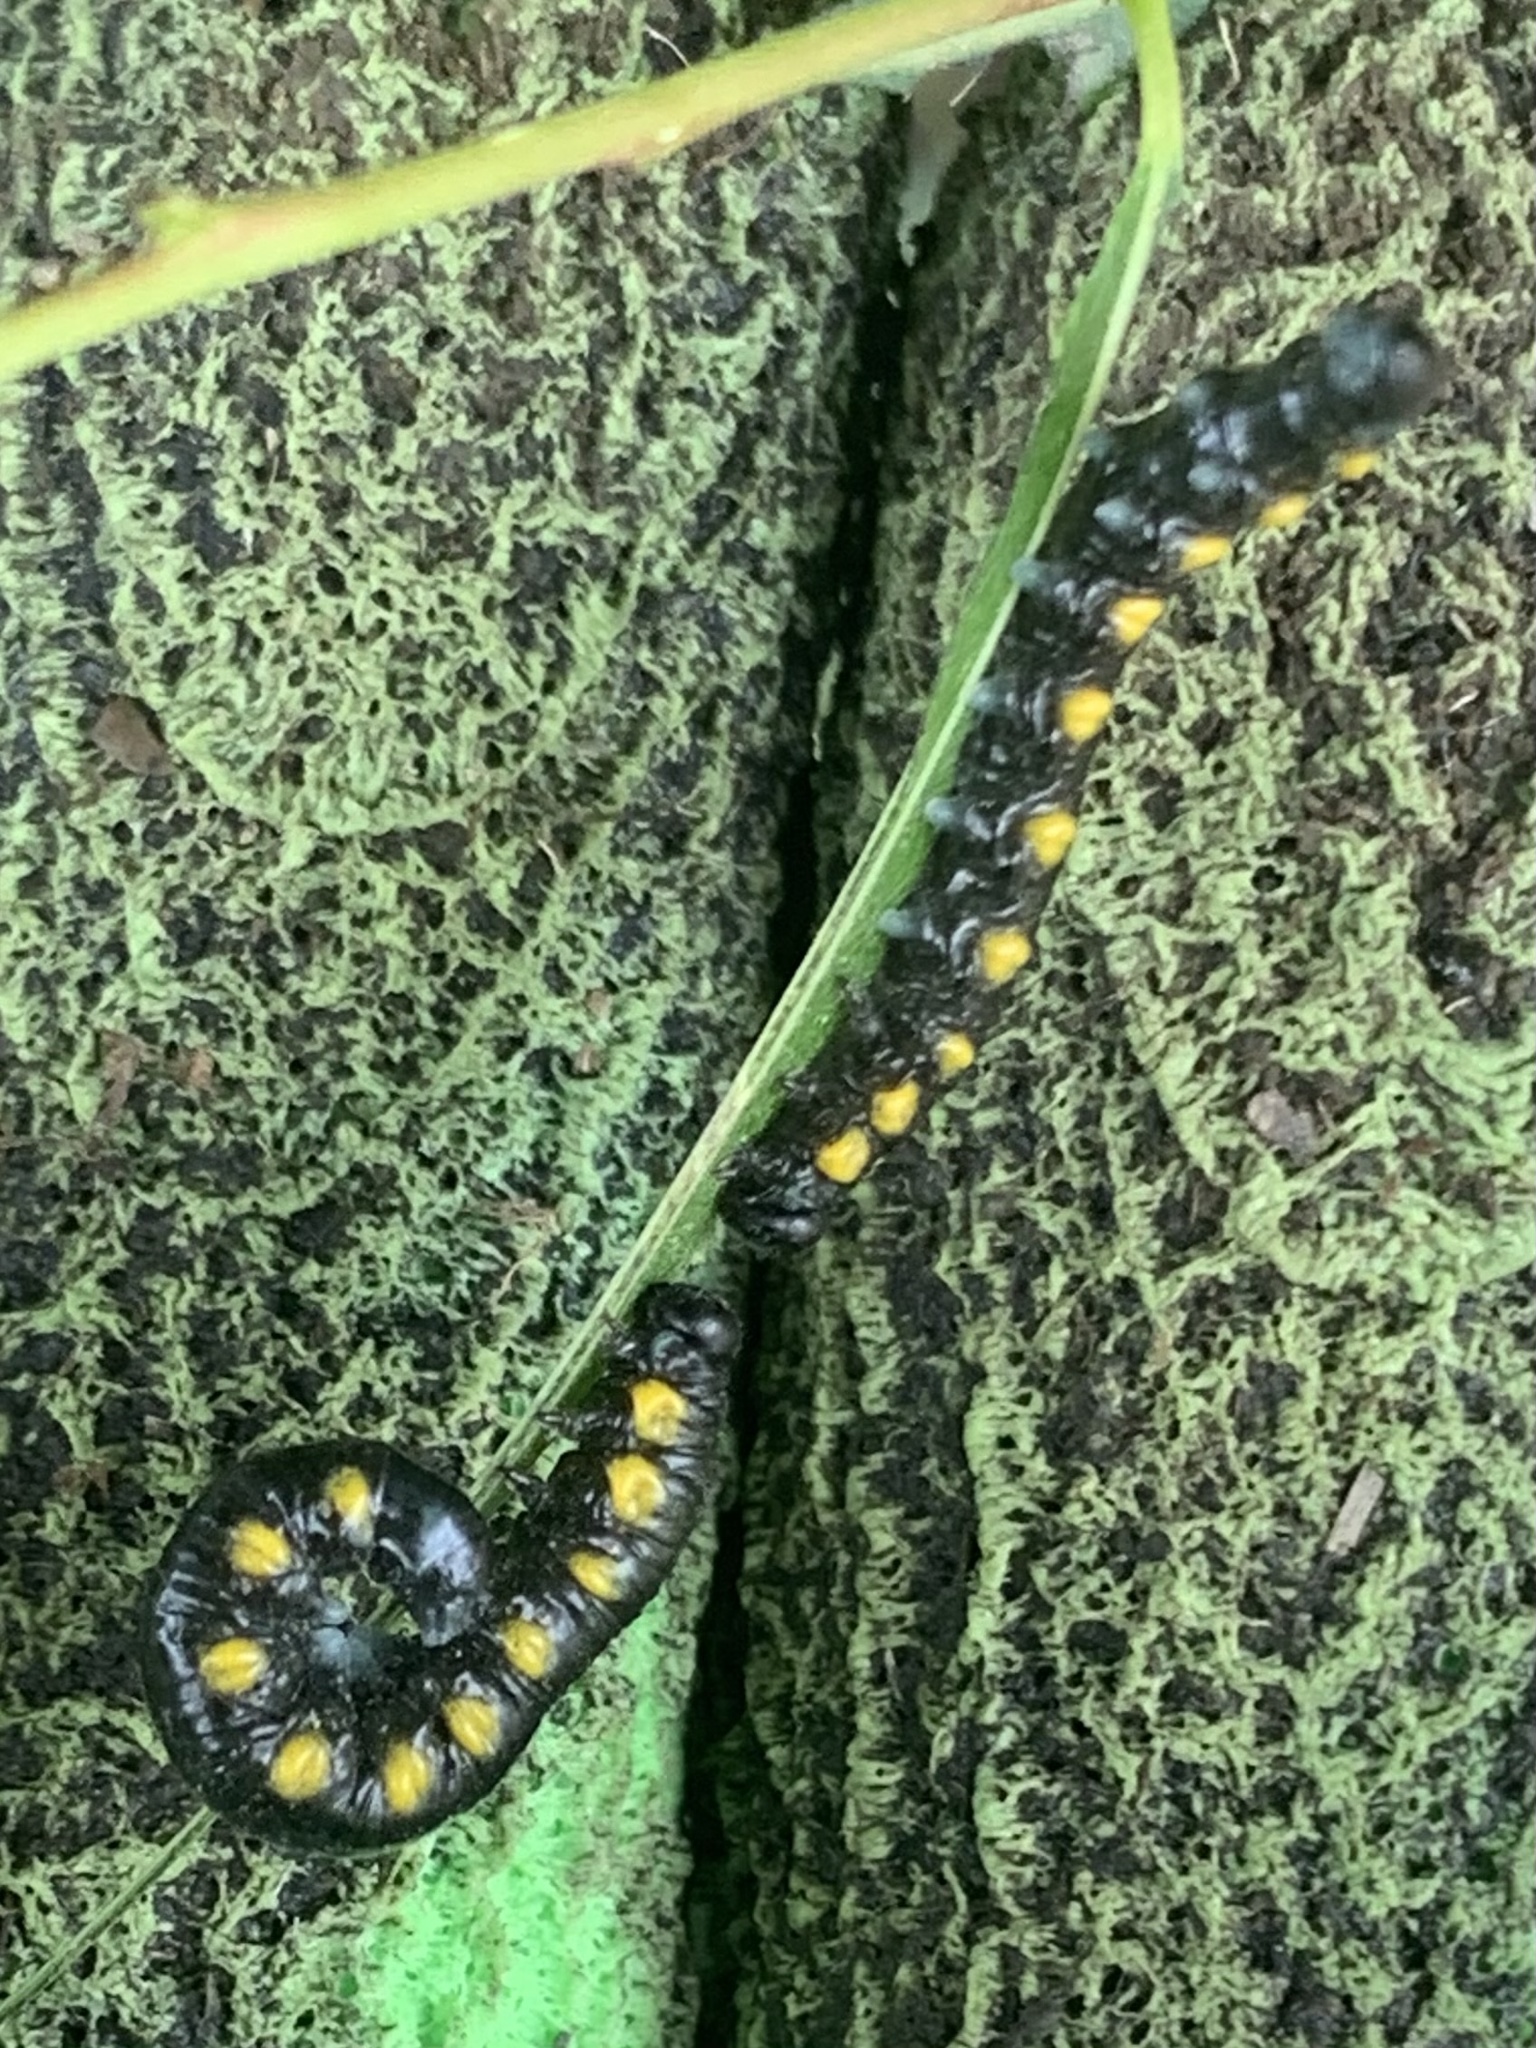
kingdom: Animalia
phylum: Arthropoda
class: Insecta
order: Hymenoptera
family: Tenthredinidae
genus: Euura
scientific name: Euura ventralis
